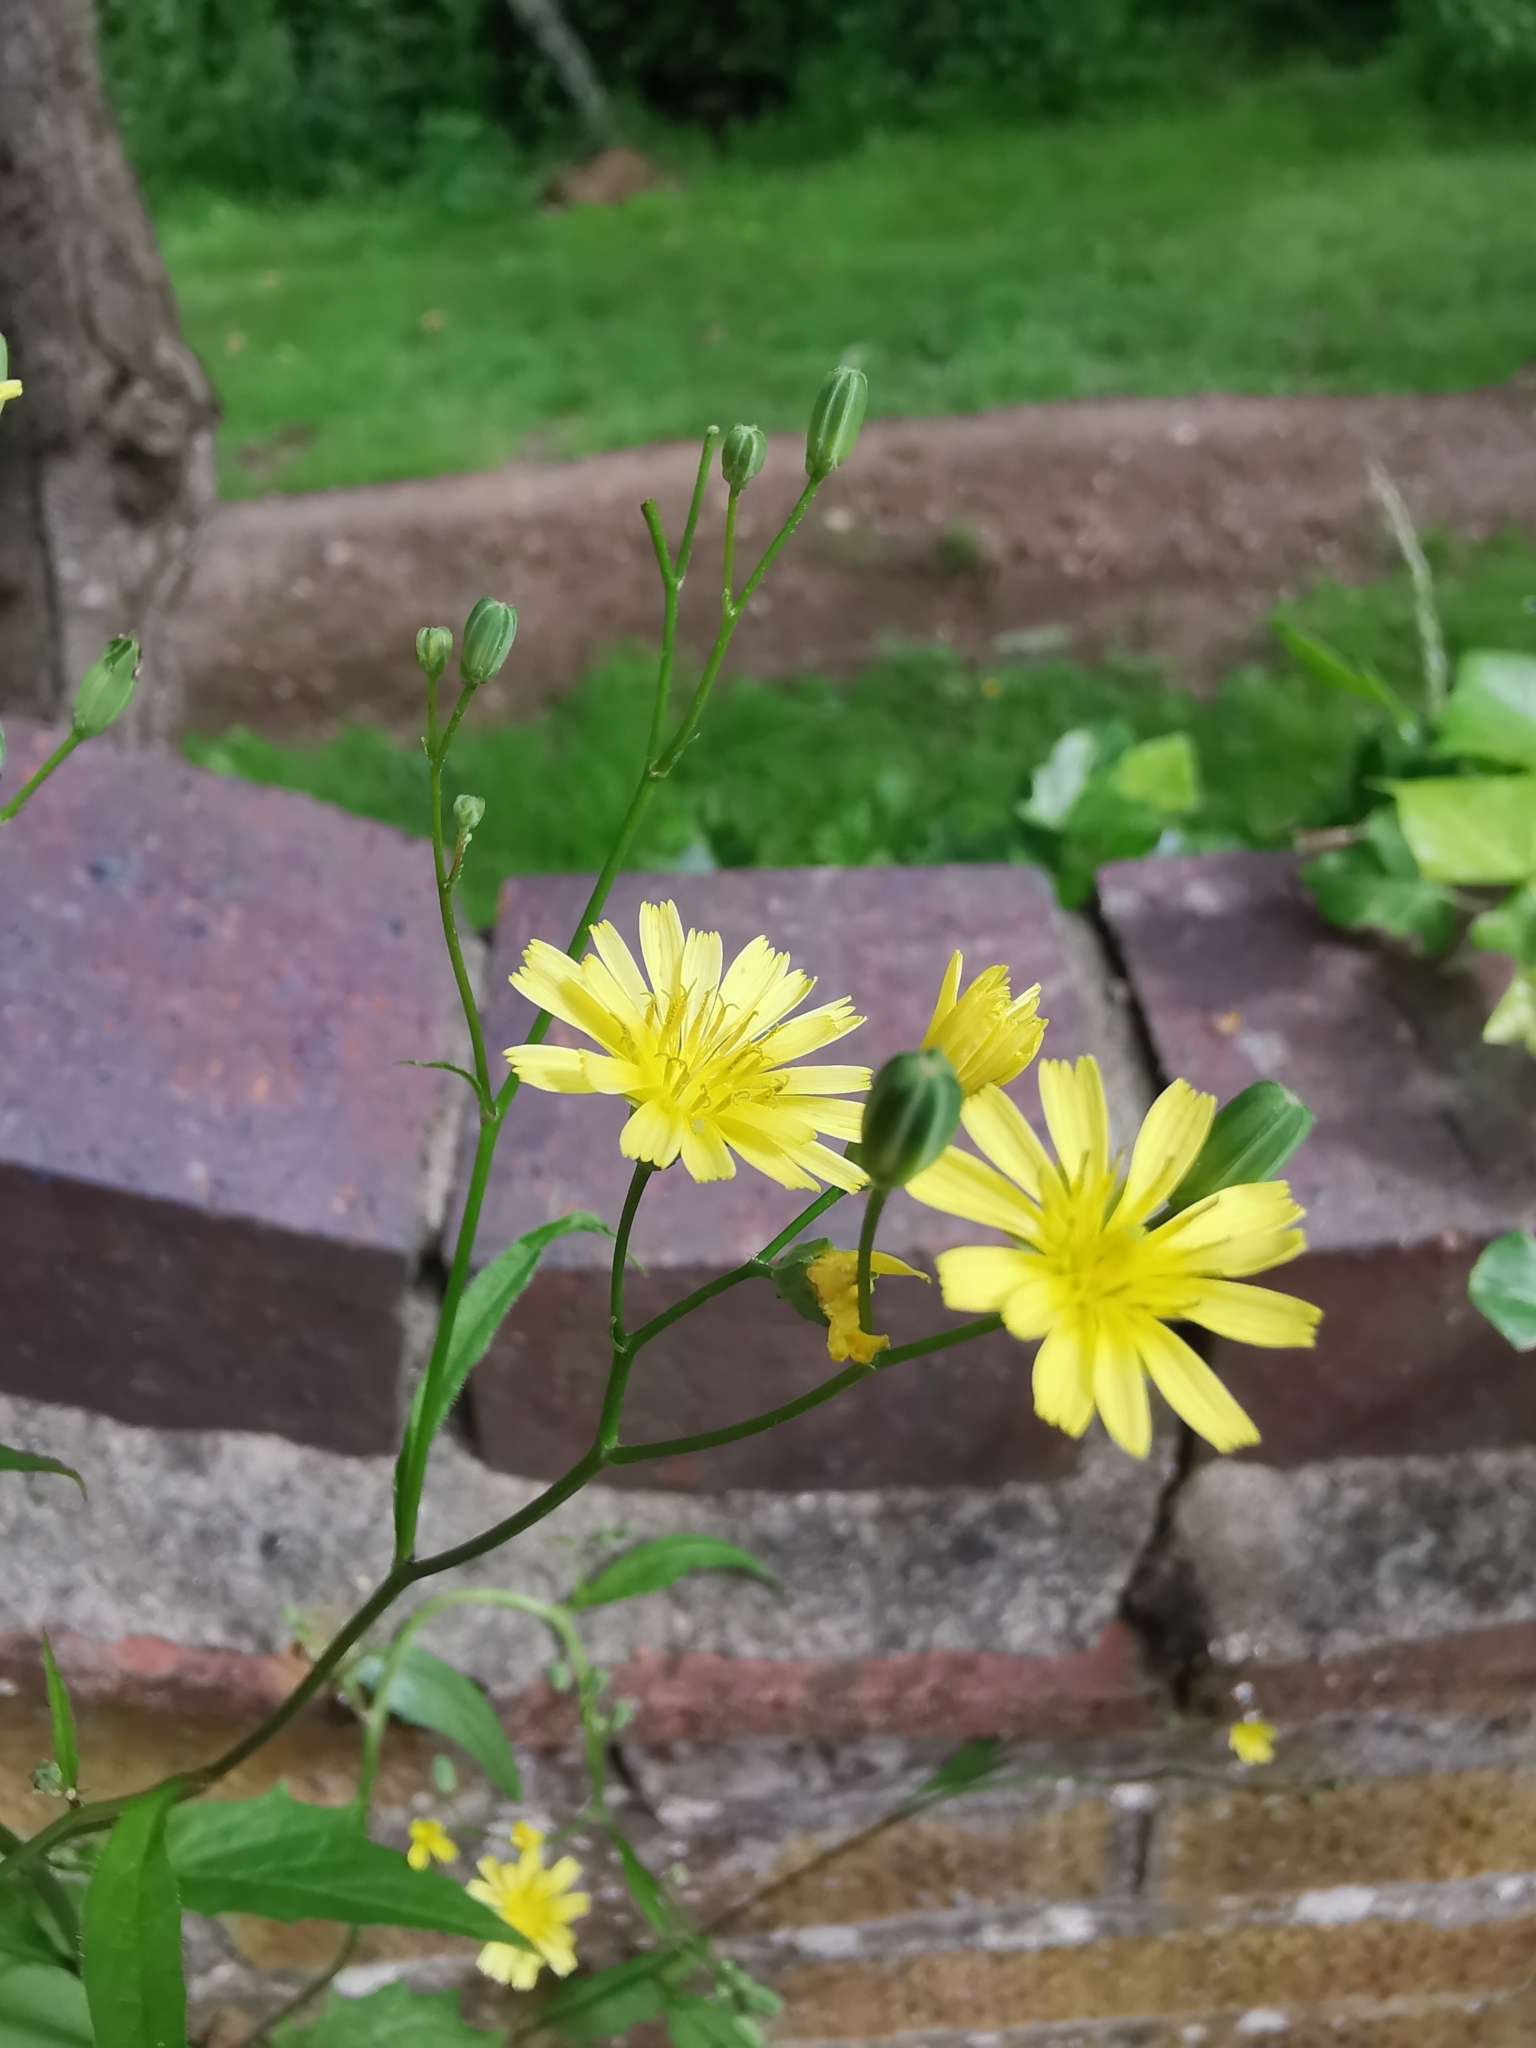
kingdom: Plantae
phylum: Tracheophyta
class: Magnoliopsida
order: Asterales
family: Asteraceae
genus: Lapsana
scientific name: Lapsana communis
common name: Nipplewort
